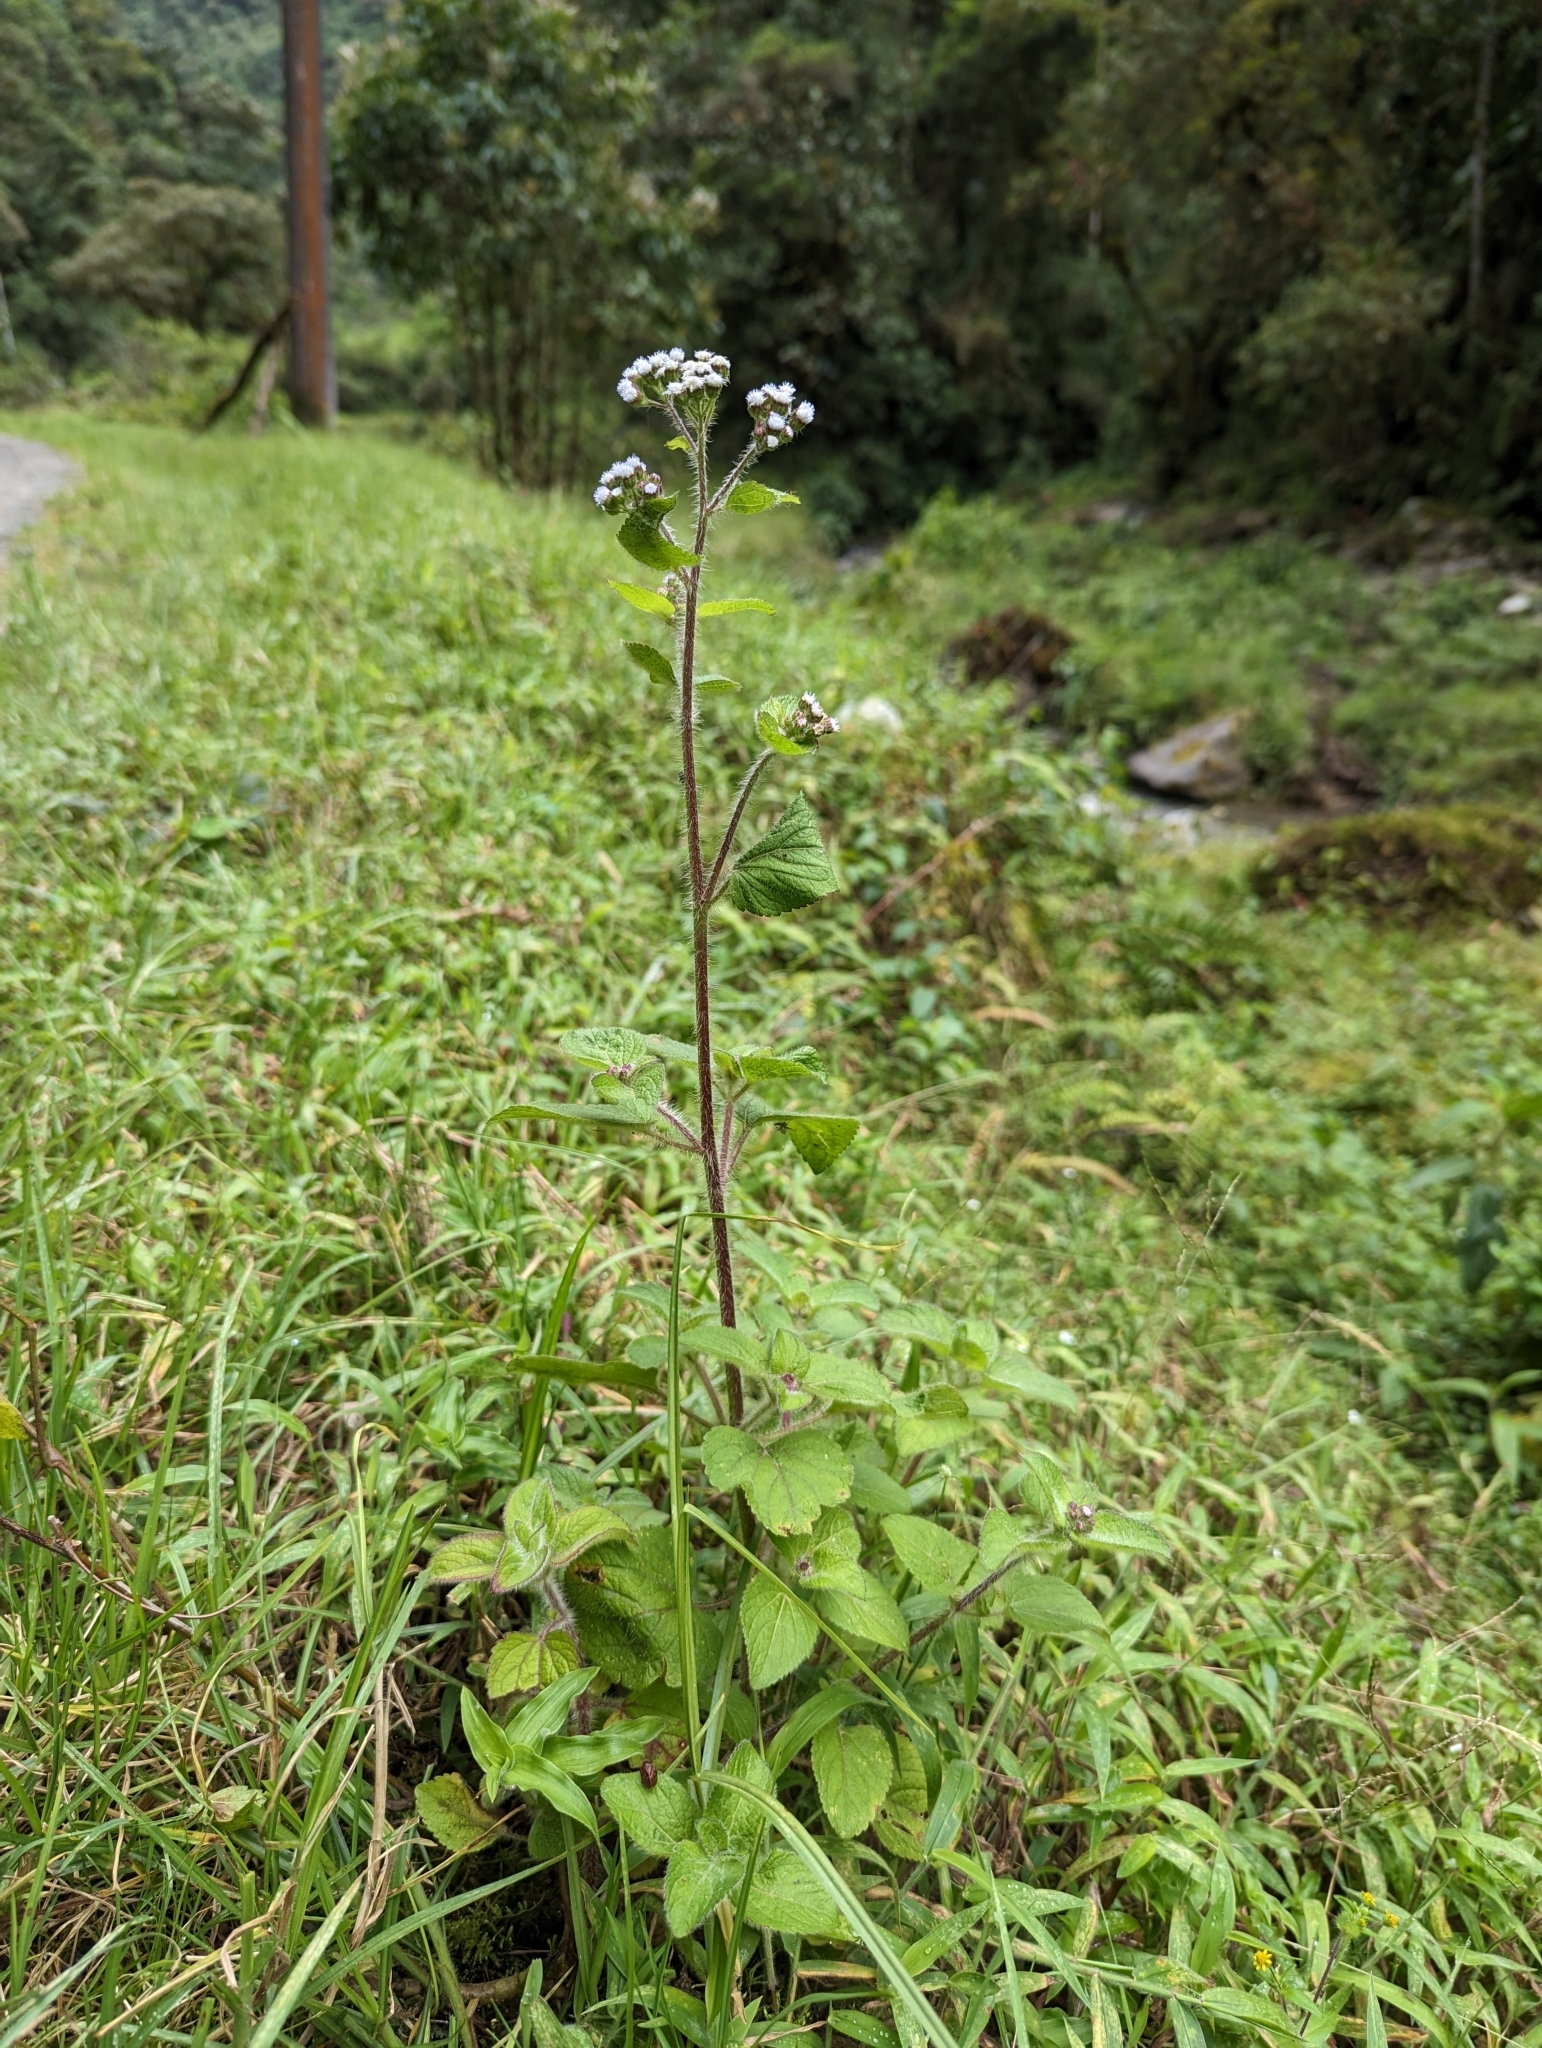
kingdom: Plantae
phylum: Tracheophyta
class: Magnoliopsida
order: Asterales
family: Asteraceae
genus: Ageratum
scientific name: Ageratum conyzoides
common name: Tropical whiteweed
